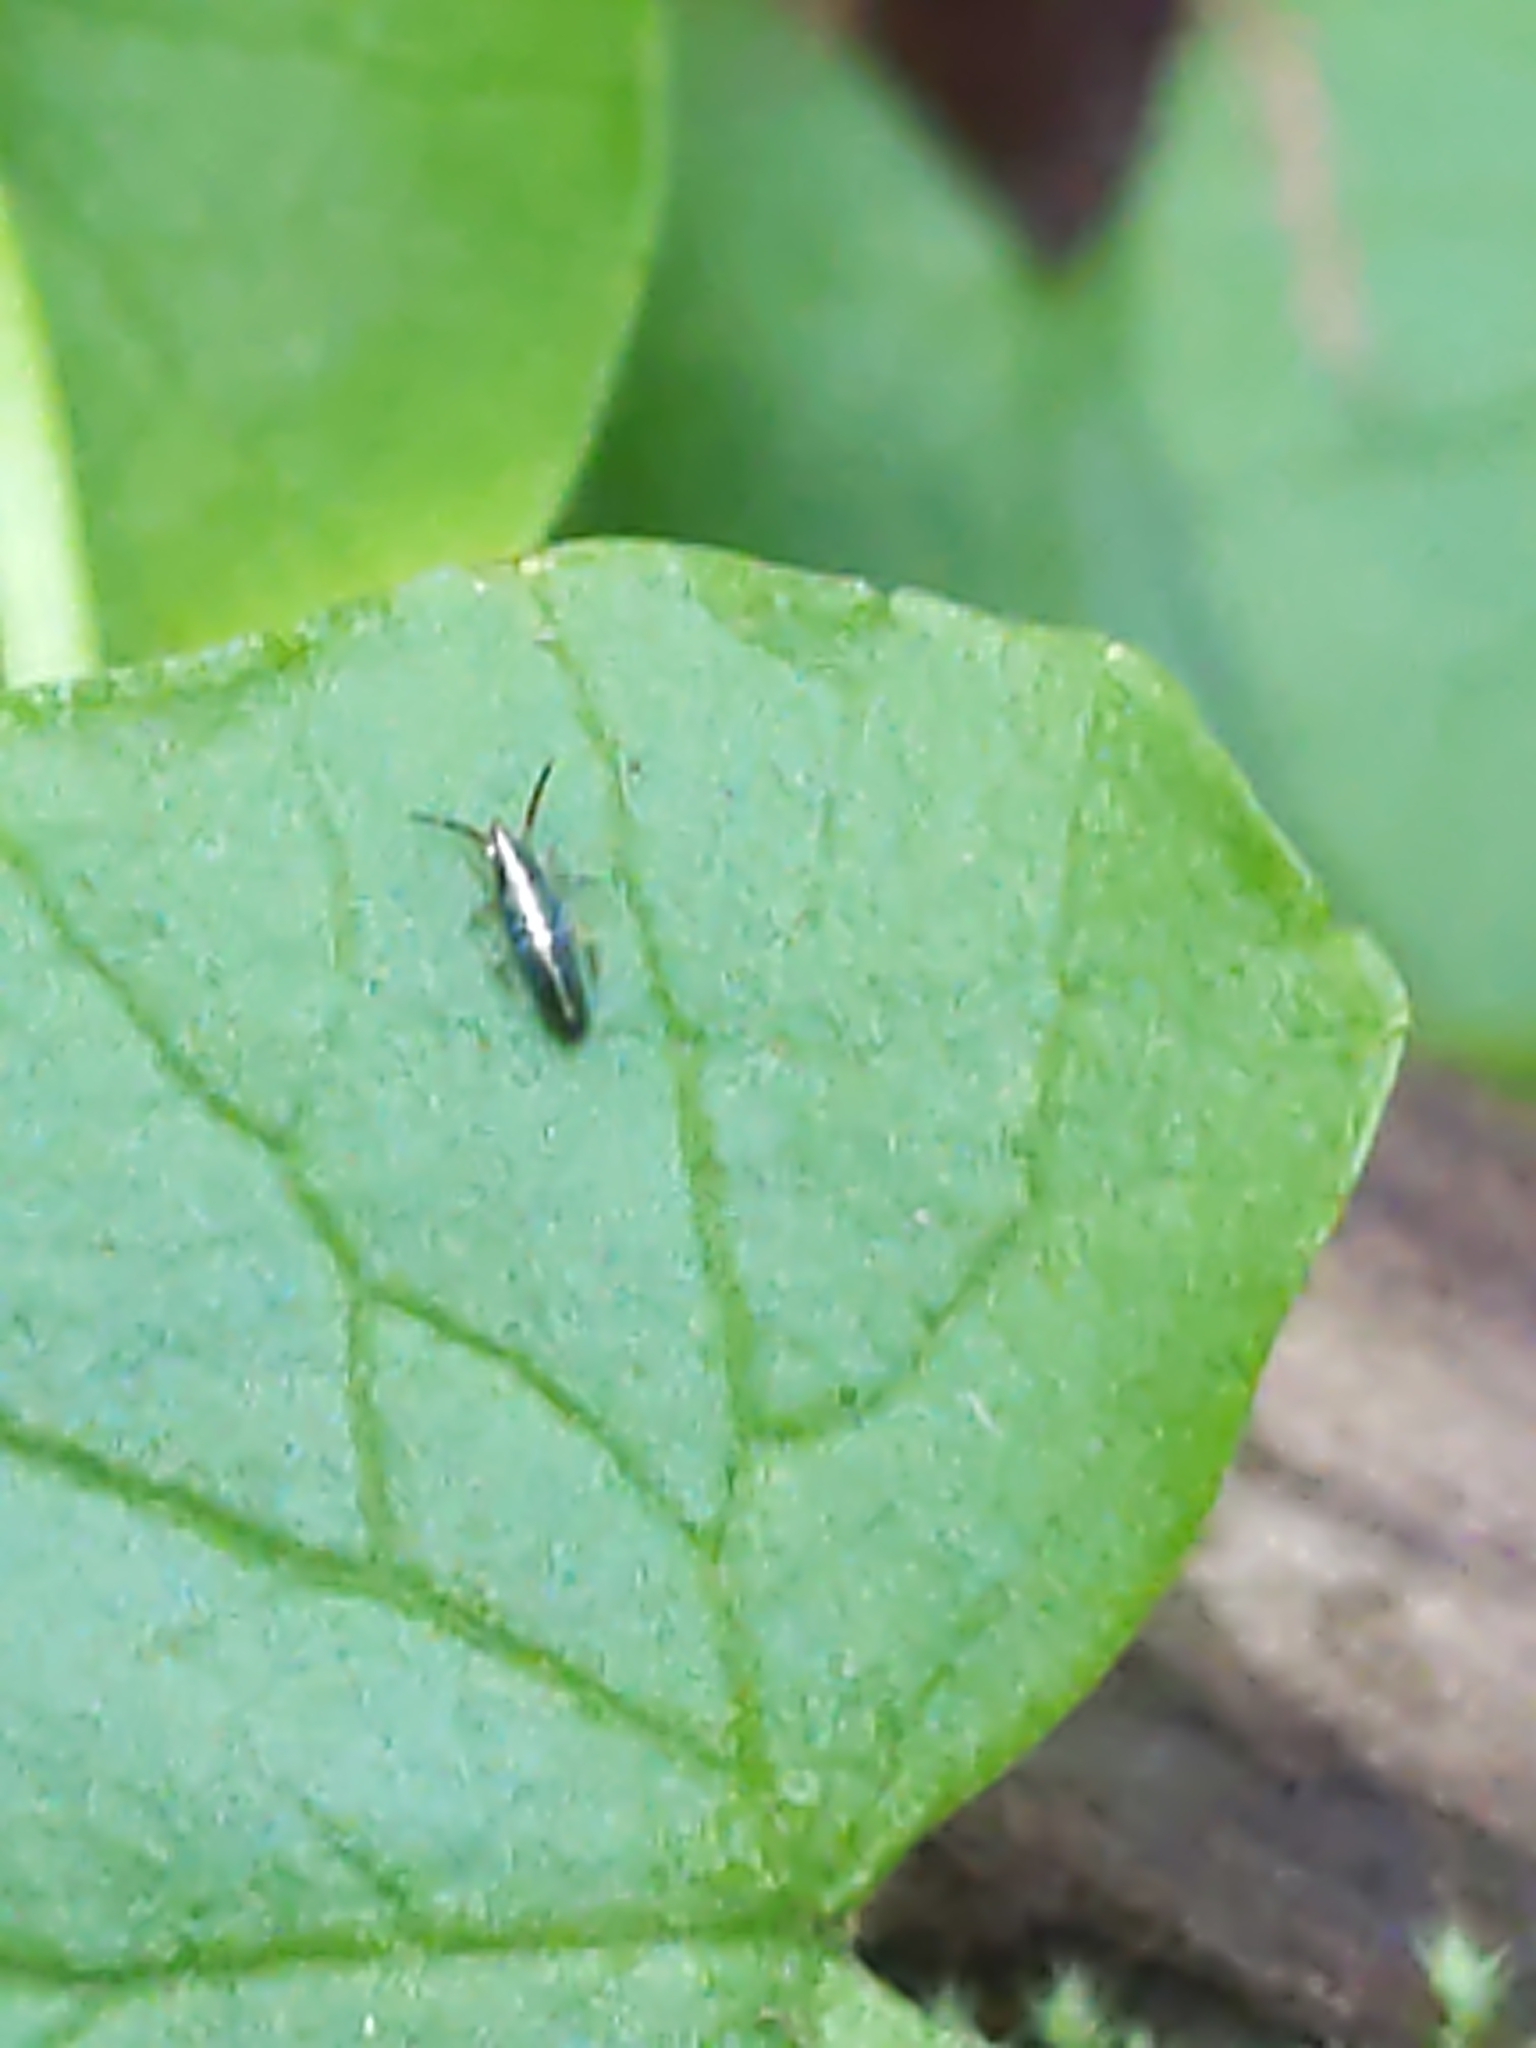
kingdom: Animalia
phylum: Arthropoda
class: Collembola
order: Entomobryomorpha
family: Entomobryidae
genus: Lepidocyrtus
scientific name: Lepidocyrtus paradoxus
